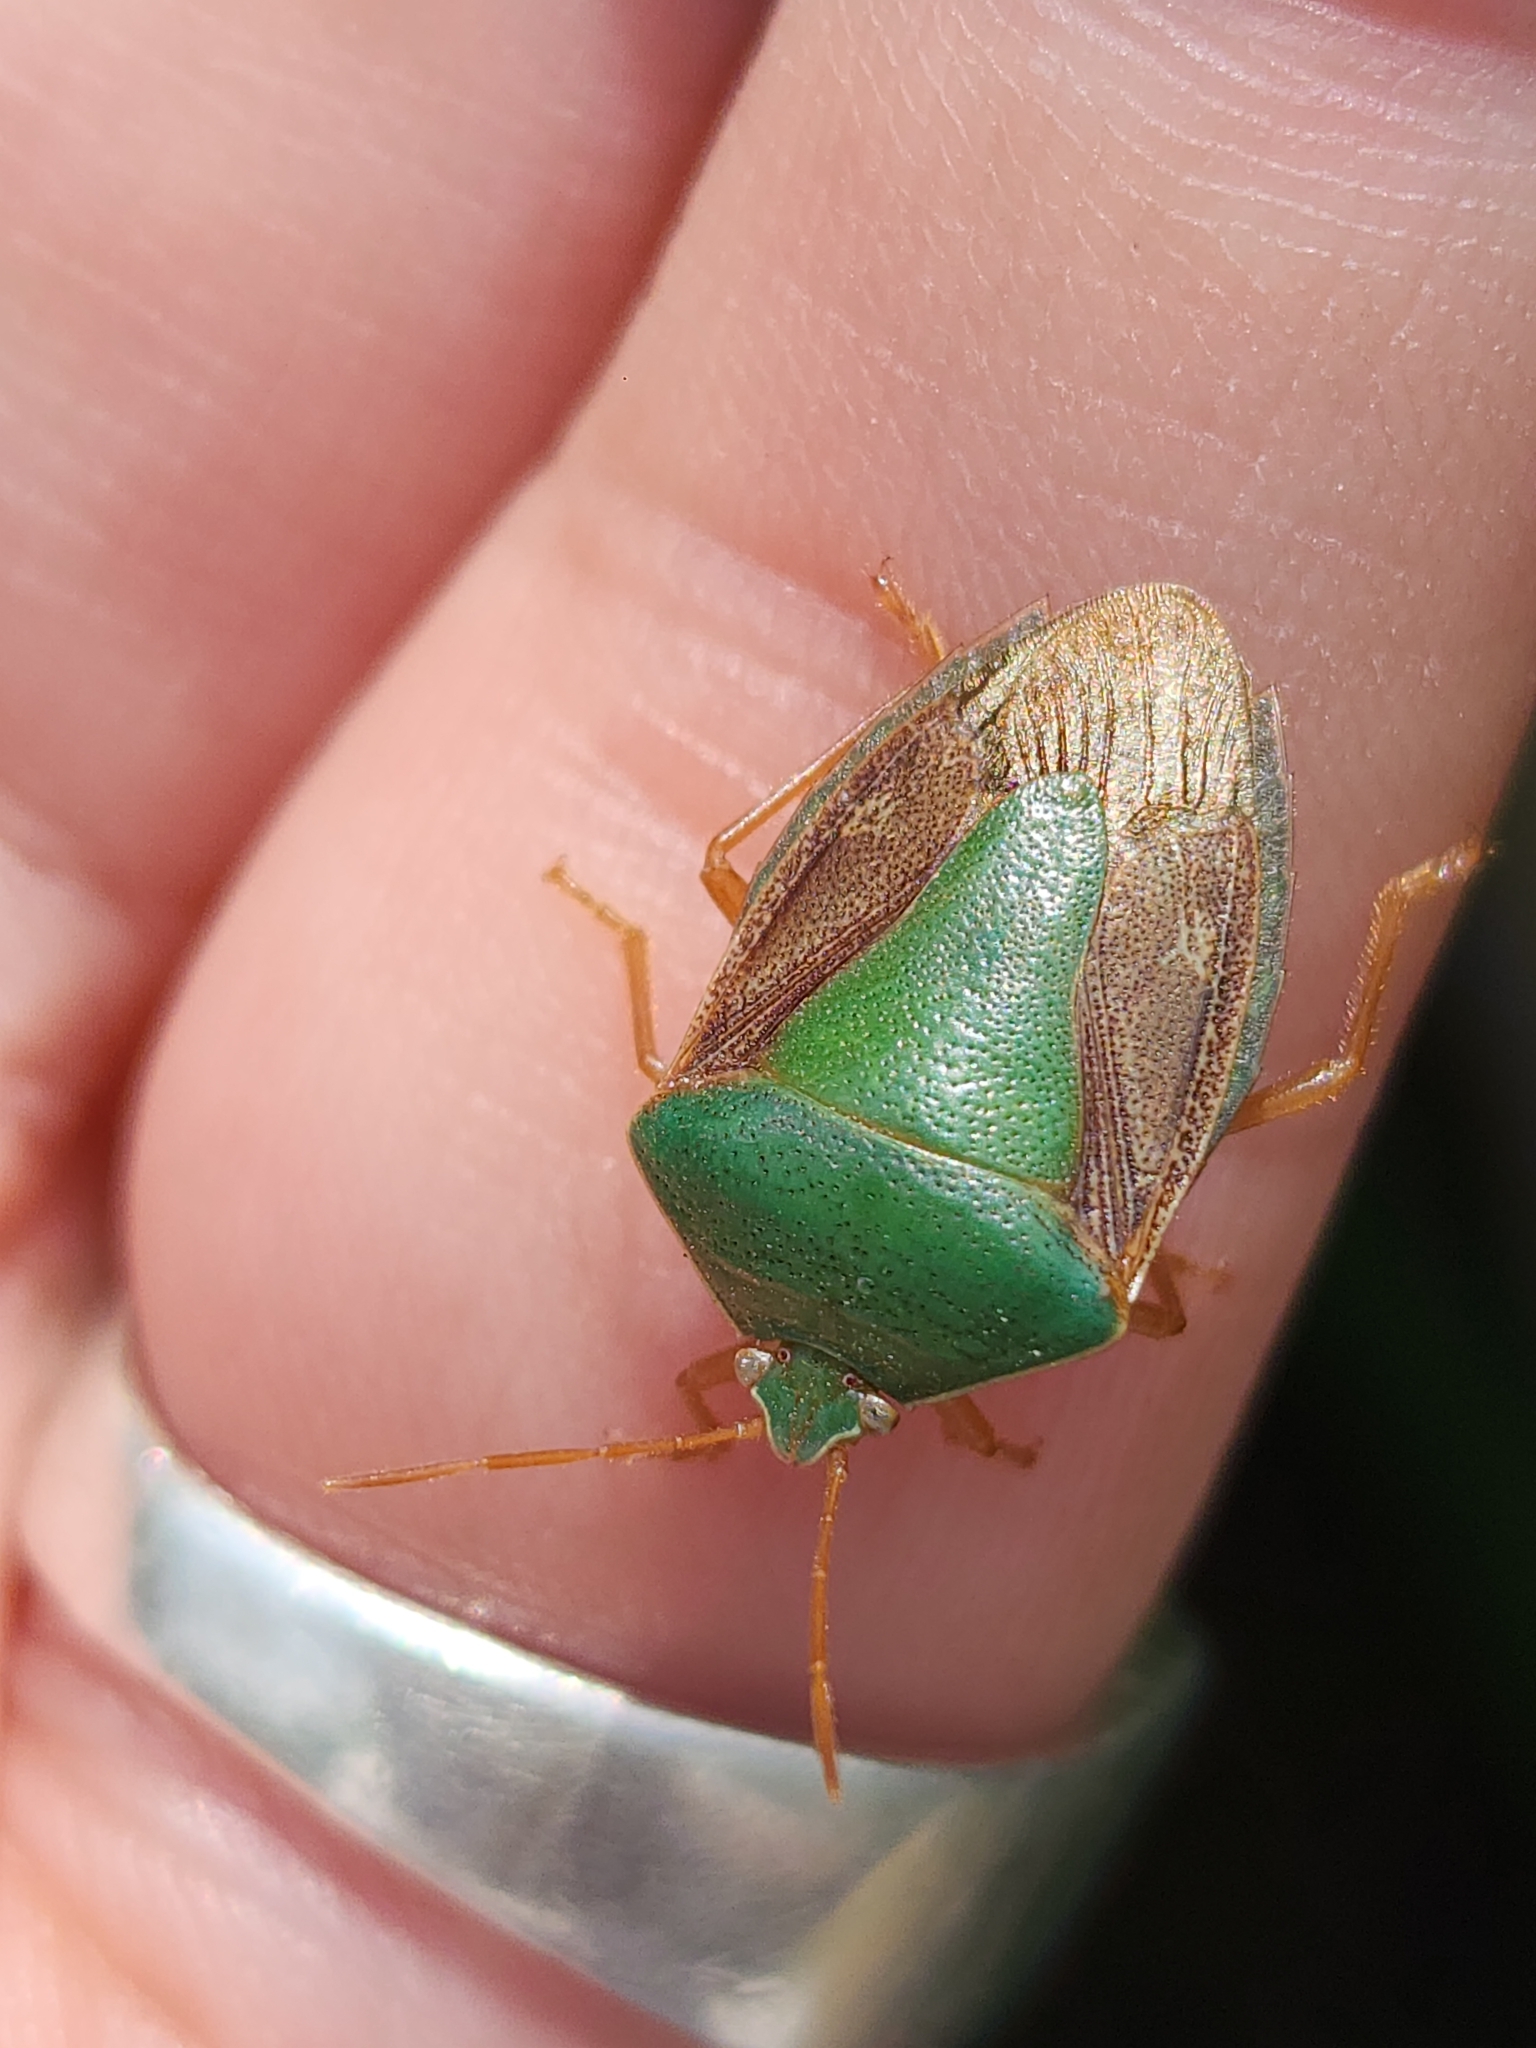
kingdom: Animalia
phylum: Arthropoda
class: Insecta
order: Hemiptera
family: Pentatomidae
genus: Edessa
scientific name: Edessa meditabunda
